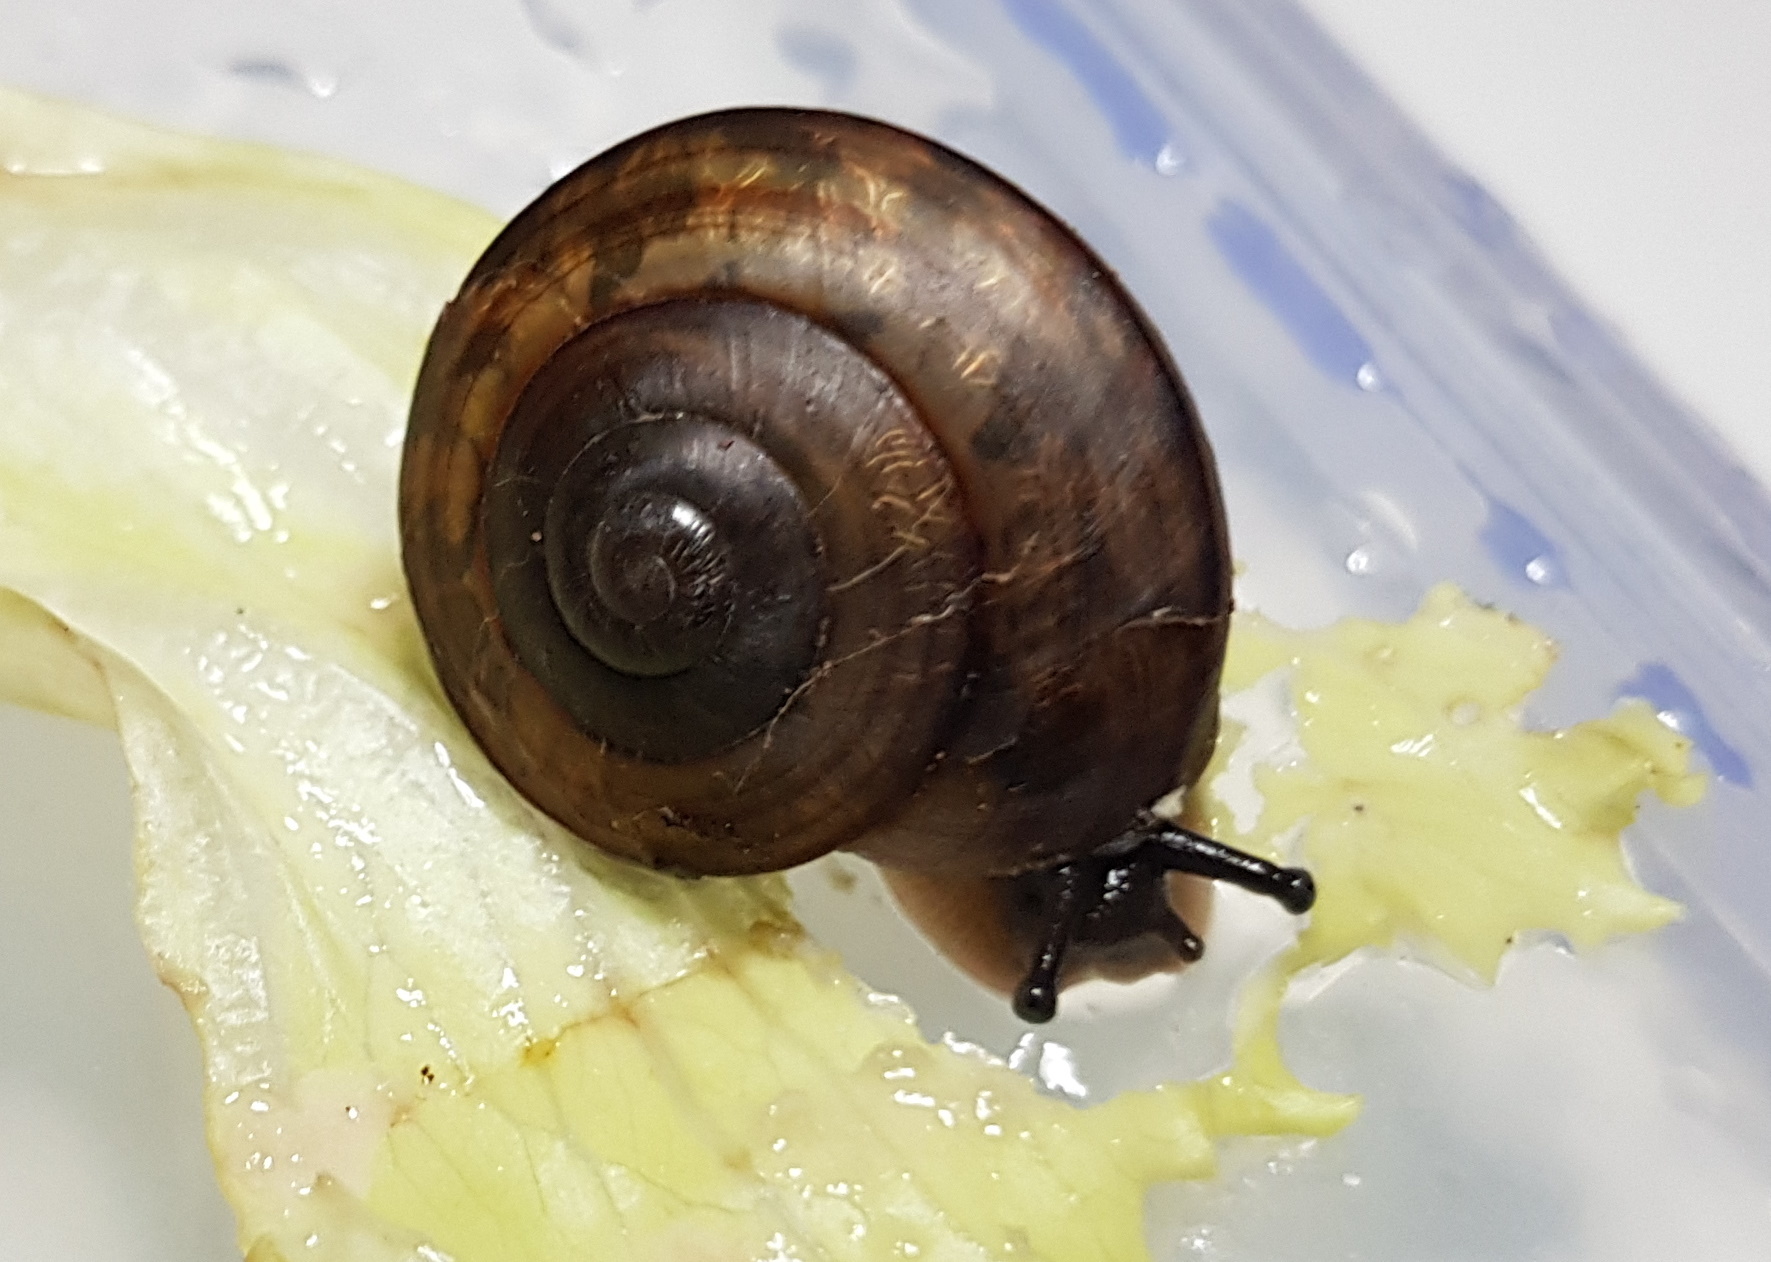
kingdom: Animalia
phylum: Mollusca
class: Gastropoda
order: Stylommatophora
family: Camaenidae
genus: Sphaerospira
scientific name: Sphaerospira fraseri
